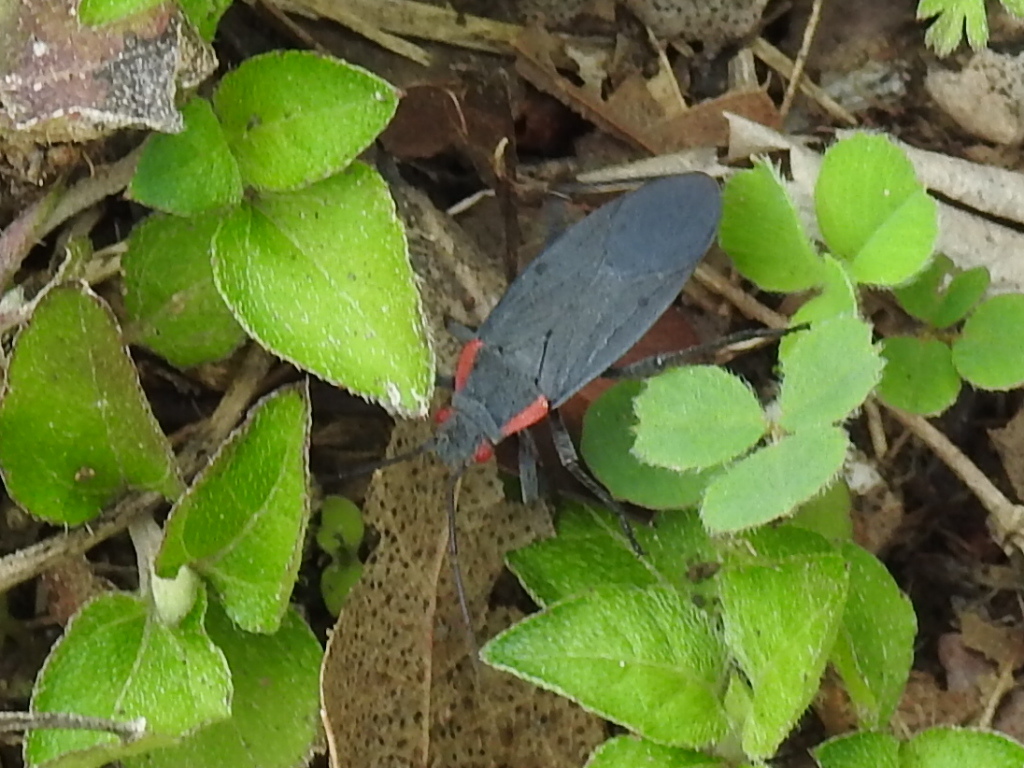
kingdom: Animalia
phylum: Arthropoda
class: Insecta
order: Hemiptera
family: Rhopalidae
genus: Jadera
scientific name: Jadera haematoloma
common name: Red-shouldered bug
